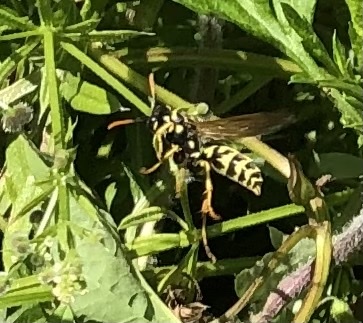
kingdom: Animalia
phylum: Arthropoda
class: Insecta
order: Hymenoptera
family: Eumenidae
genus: Polistes
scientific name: Polistes dominula
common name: Paper wasp
